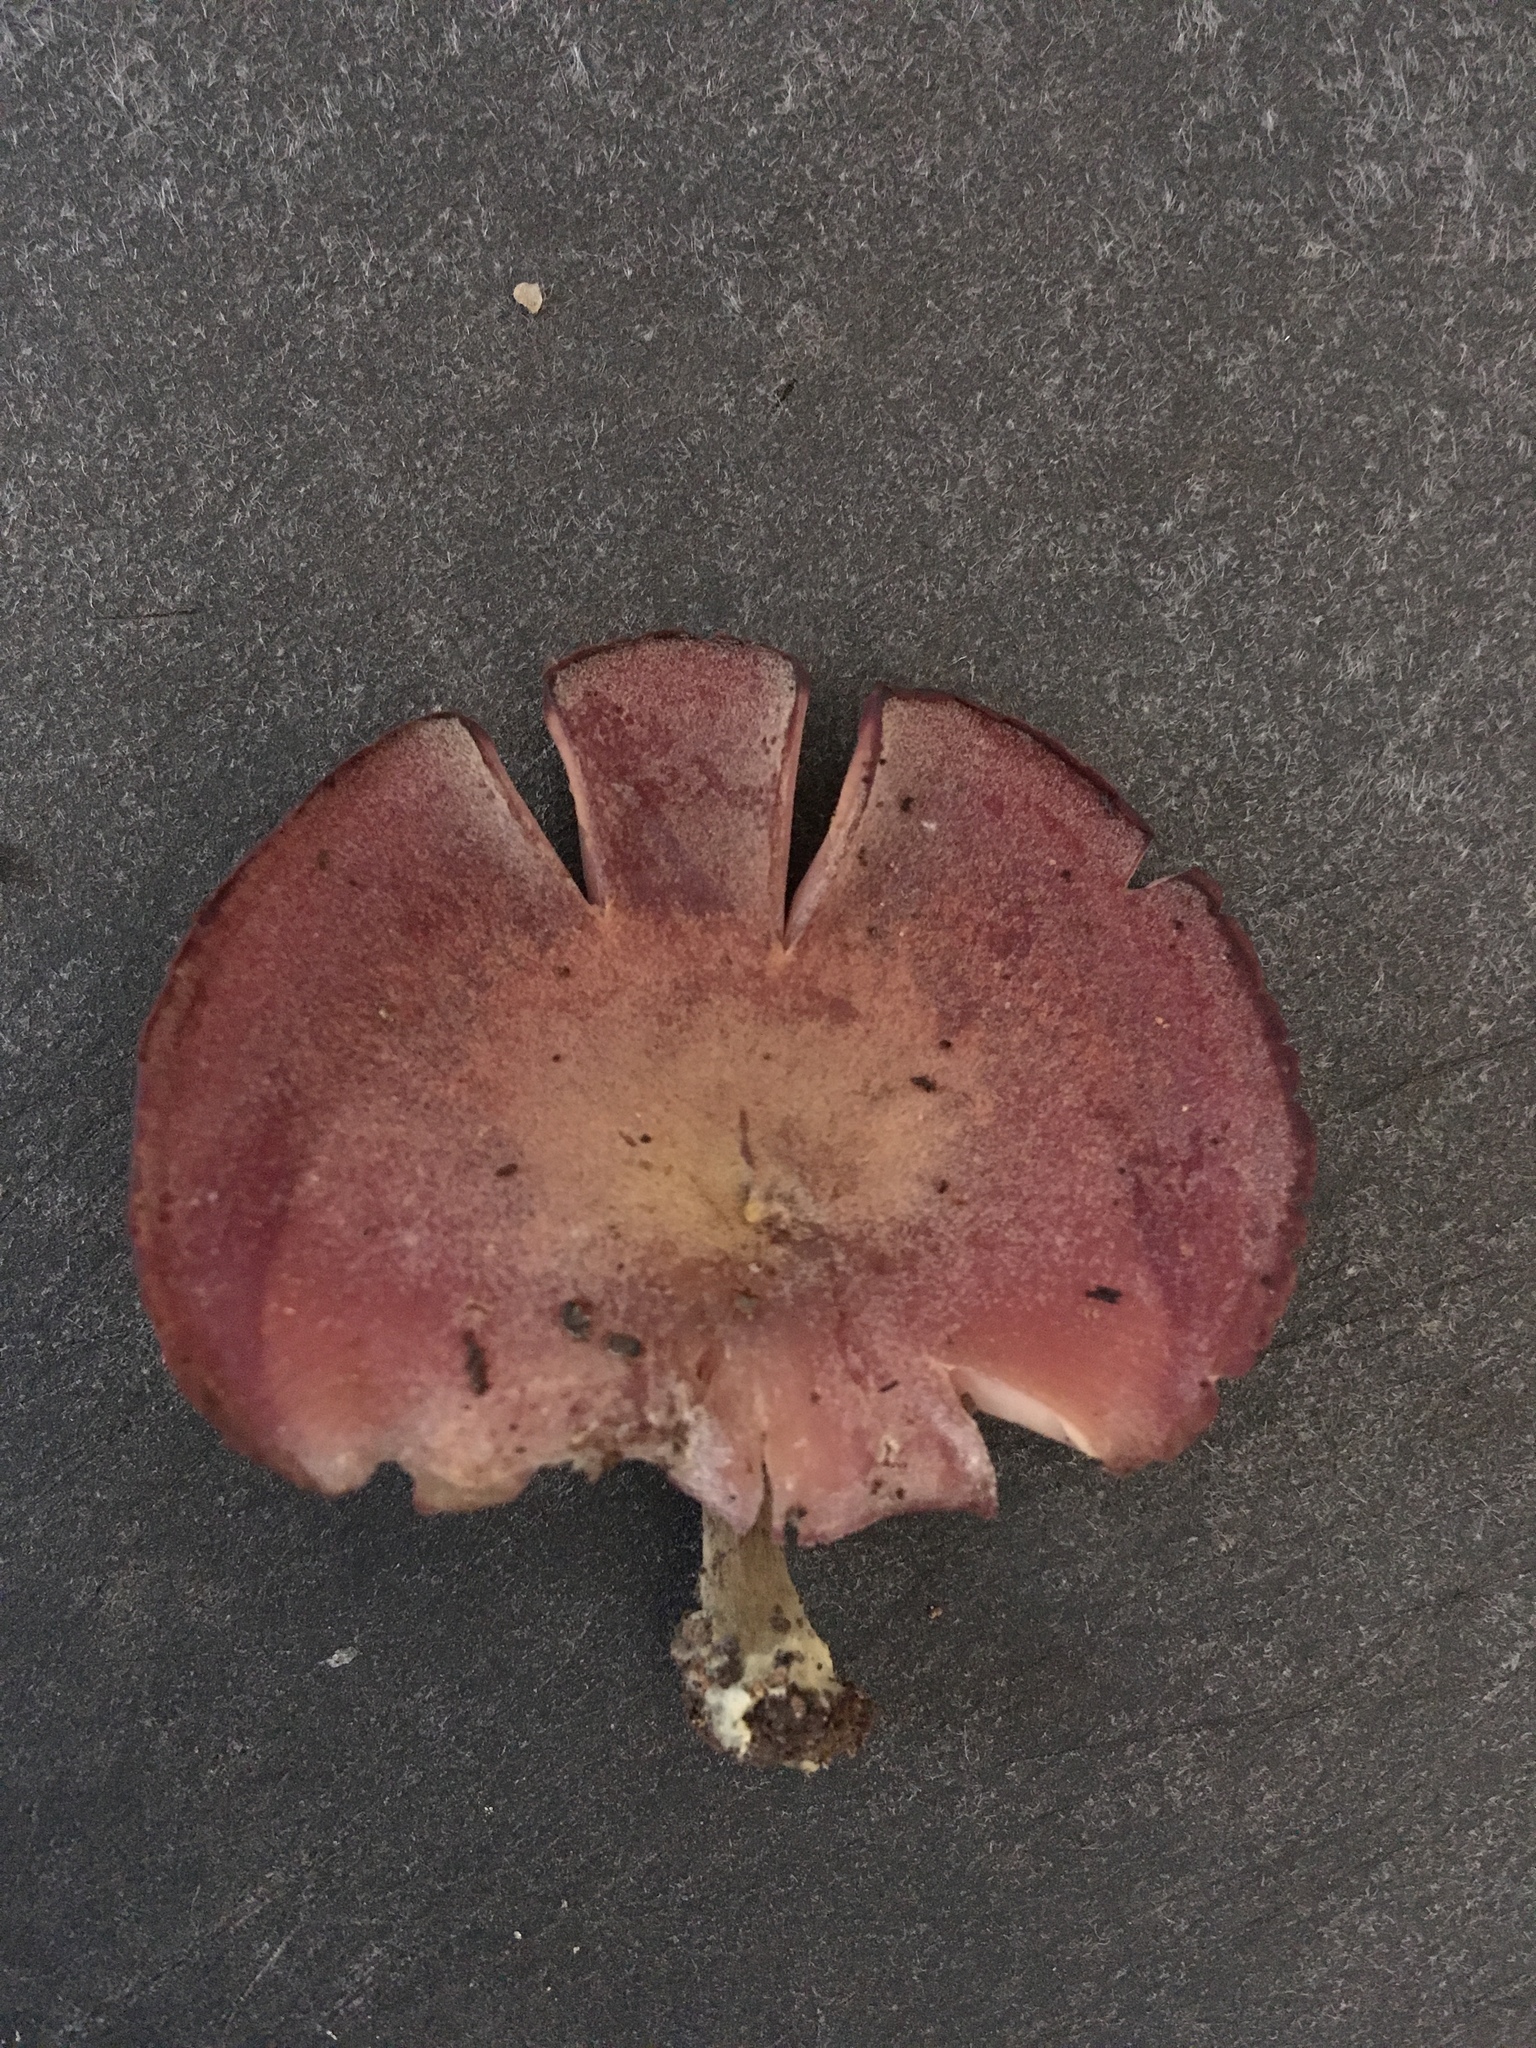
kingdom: Fungi
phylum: Basidiomycota
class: Agaricomycetes
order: Agaricales
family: Callistosporiaceae
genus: Callistosporium
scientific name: Callistosporium purpureomarginatum
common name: Purple-edged lute
